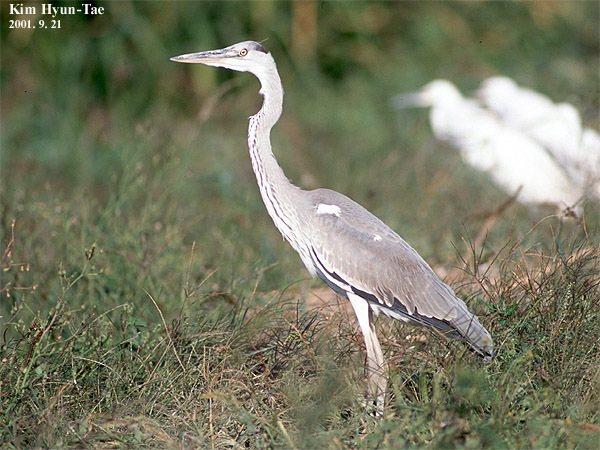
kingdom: Animalia
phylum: Chordata
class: Aves
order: Pelecaniformes
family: Ardeidae
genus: Ardea
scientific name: Ardea cinerea
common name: Grey heron
